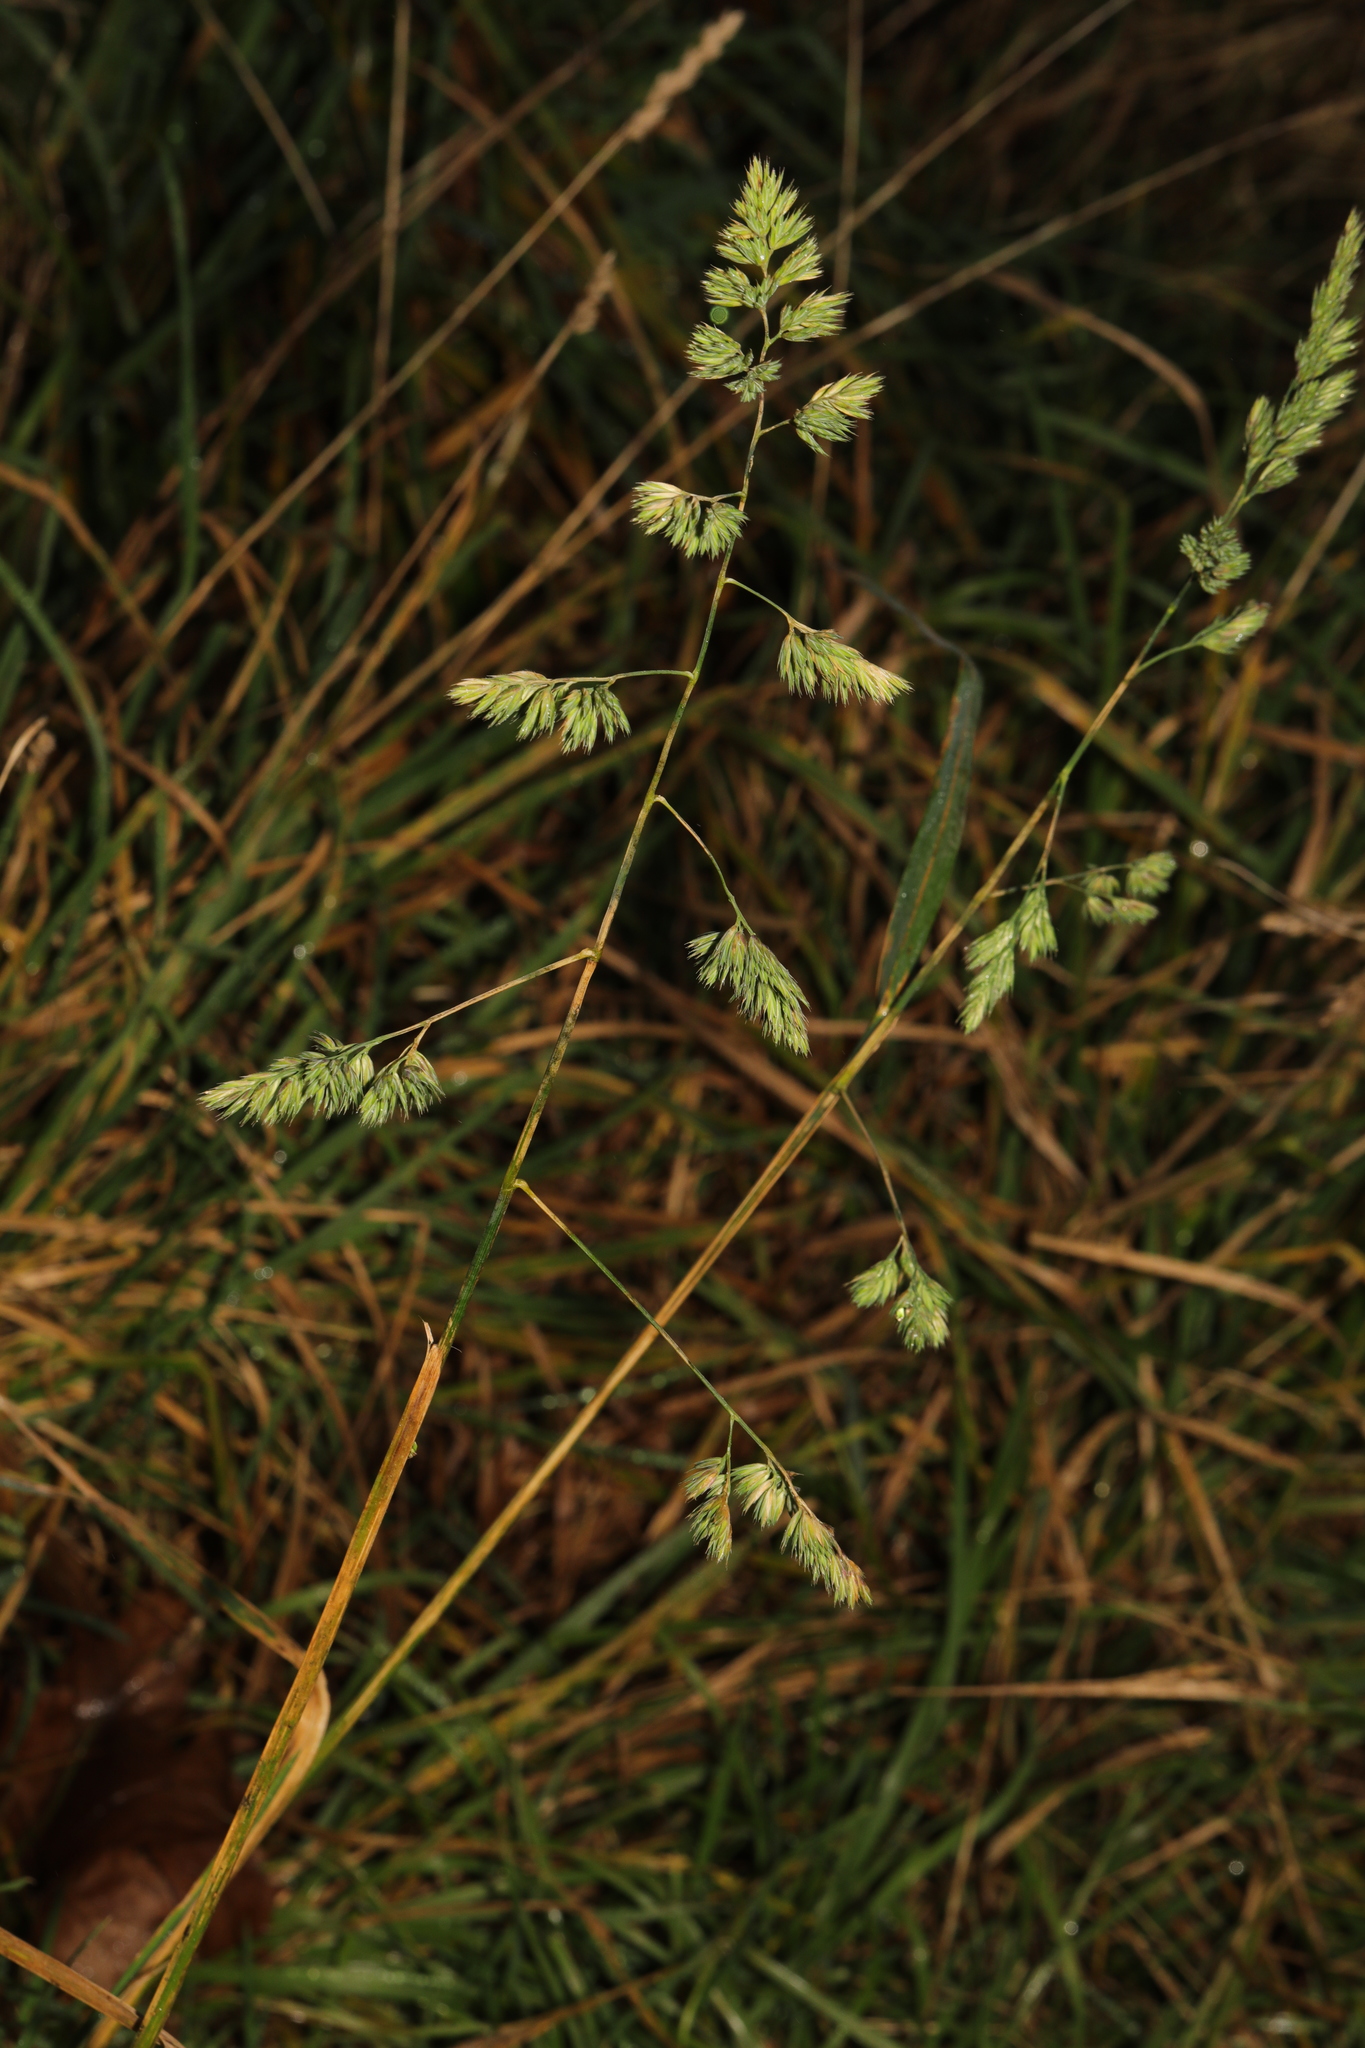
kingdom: Plantae
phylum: Tracheophyta
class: Liliopsida
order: Poales
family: Poaceae
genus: Dactylis
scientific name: Dactylis glomerata
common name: Orchardgrass
